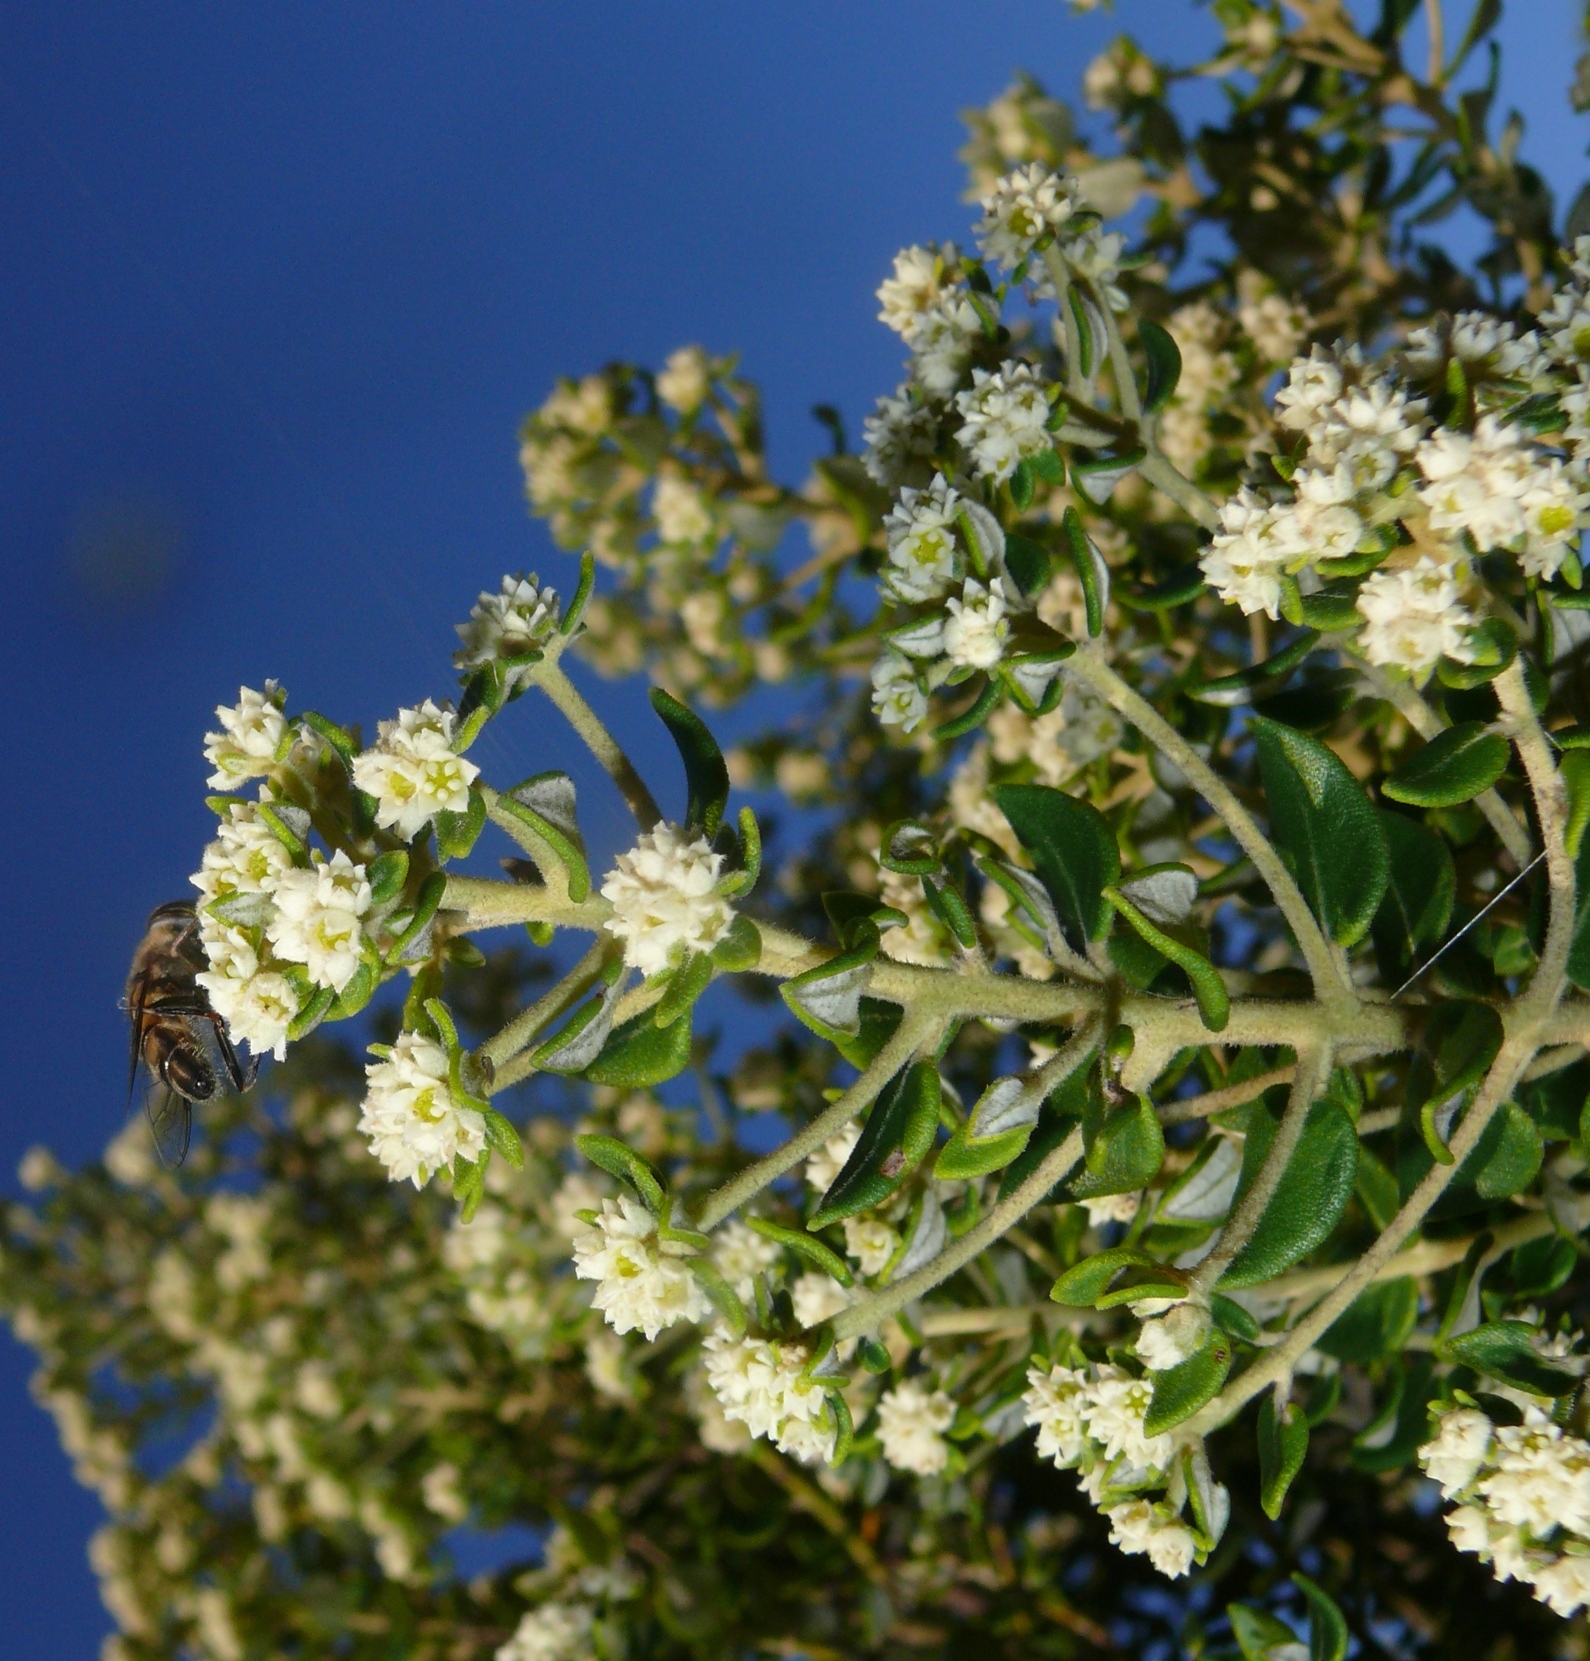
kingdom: Plantae
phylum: Tracheophyta
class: Magnoliopsida
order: Rosales
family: Rhamnaceae
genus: Phylica
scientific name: Phylica buxifolia
